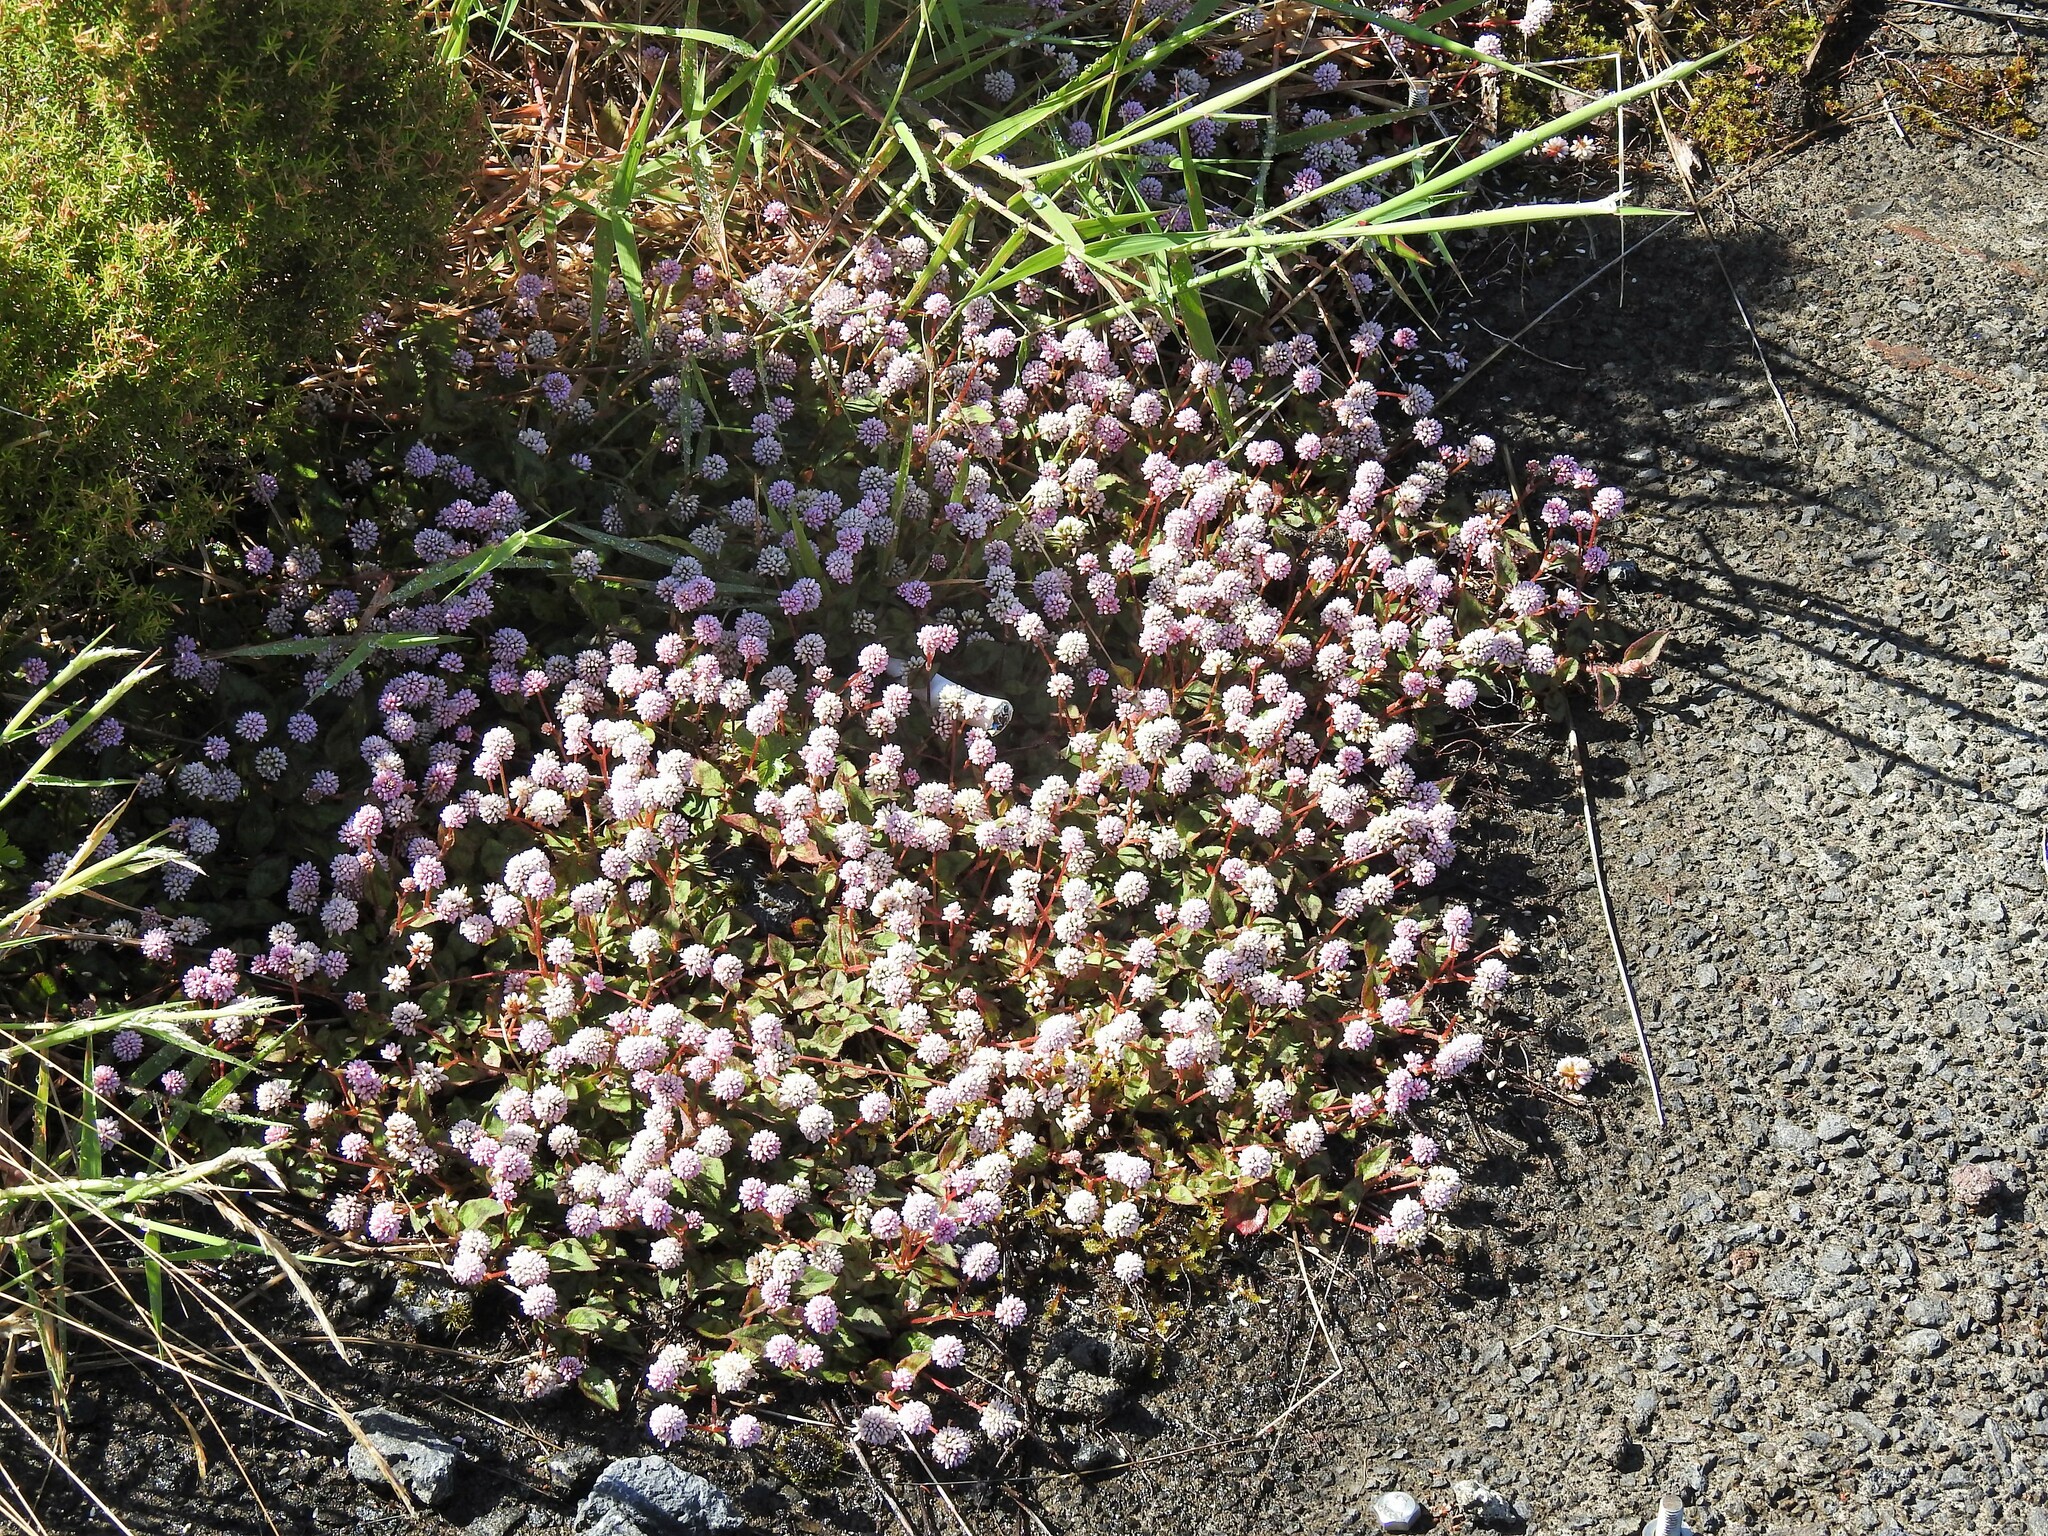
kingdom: Plantae
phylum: Tracheophyta
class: Magnoliopsida
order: Caryophyllales
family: Polygonaceae
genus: Persicaria
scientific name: Persicaria capitata
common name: Pinkhead smartweed
